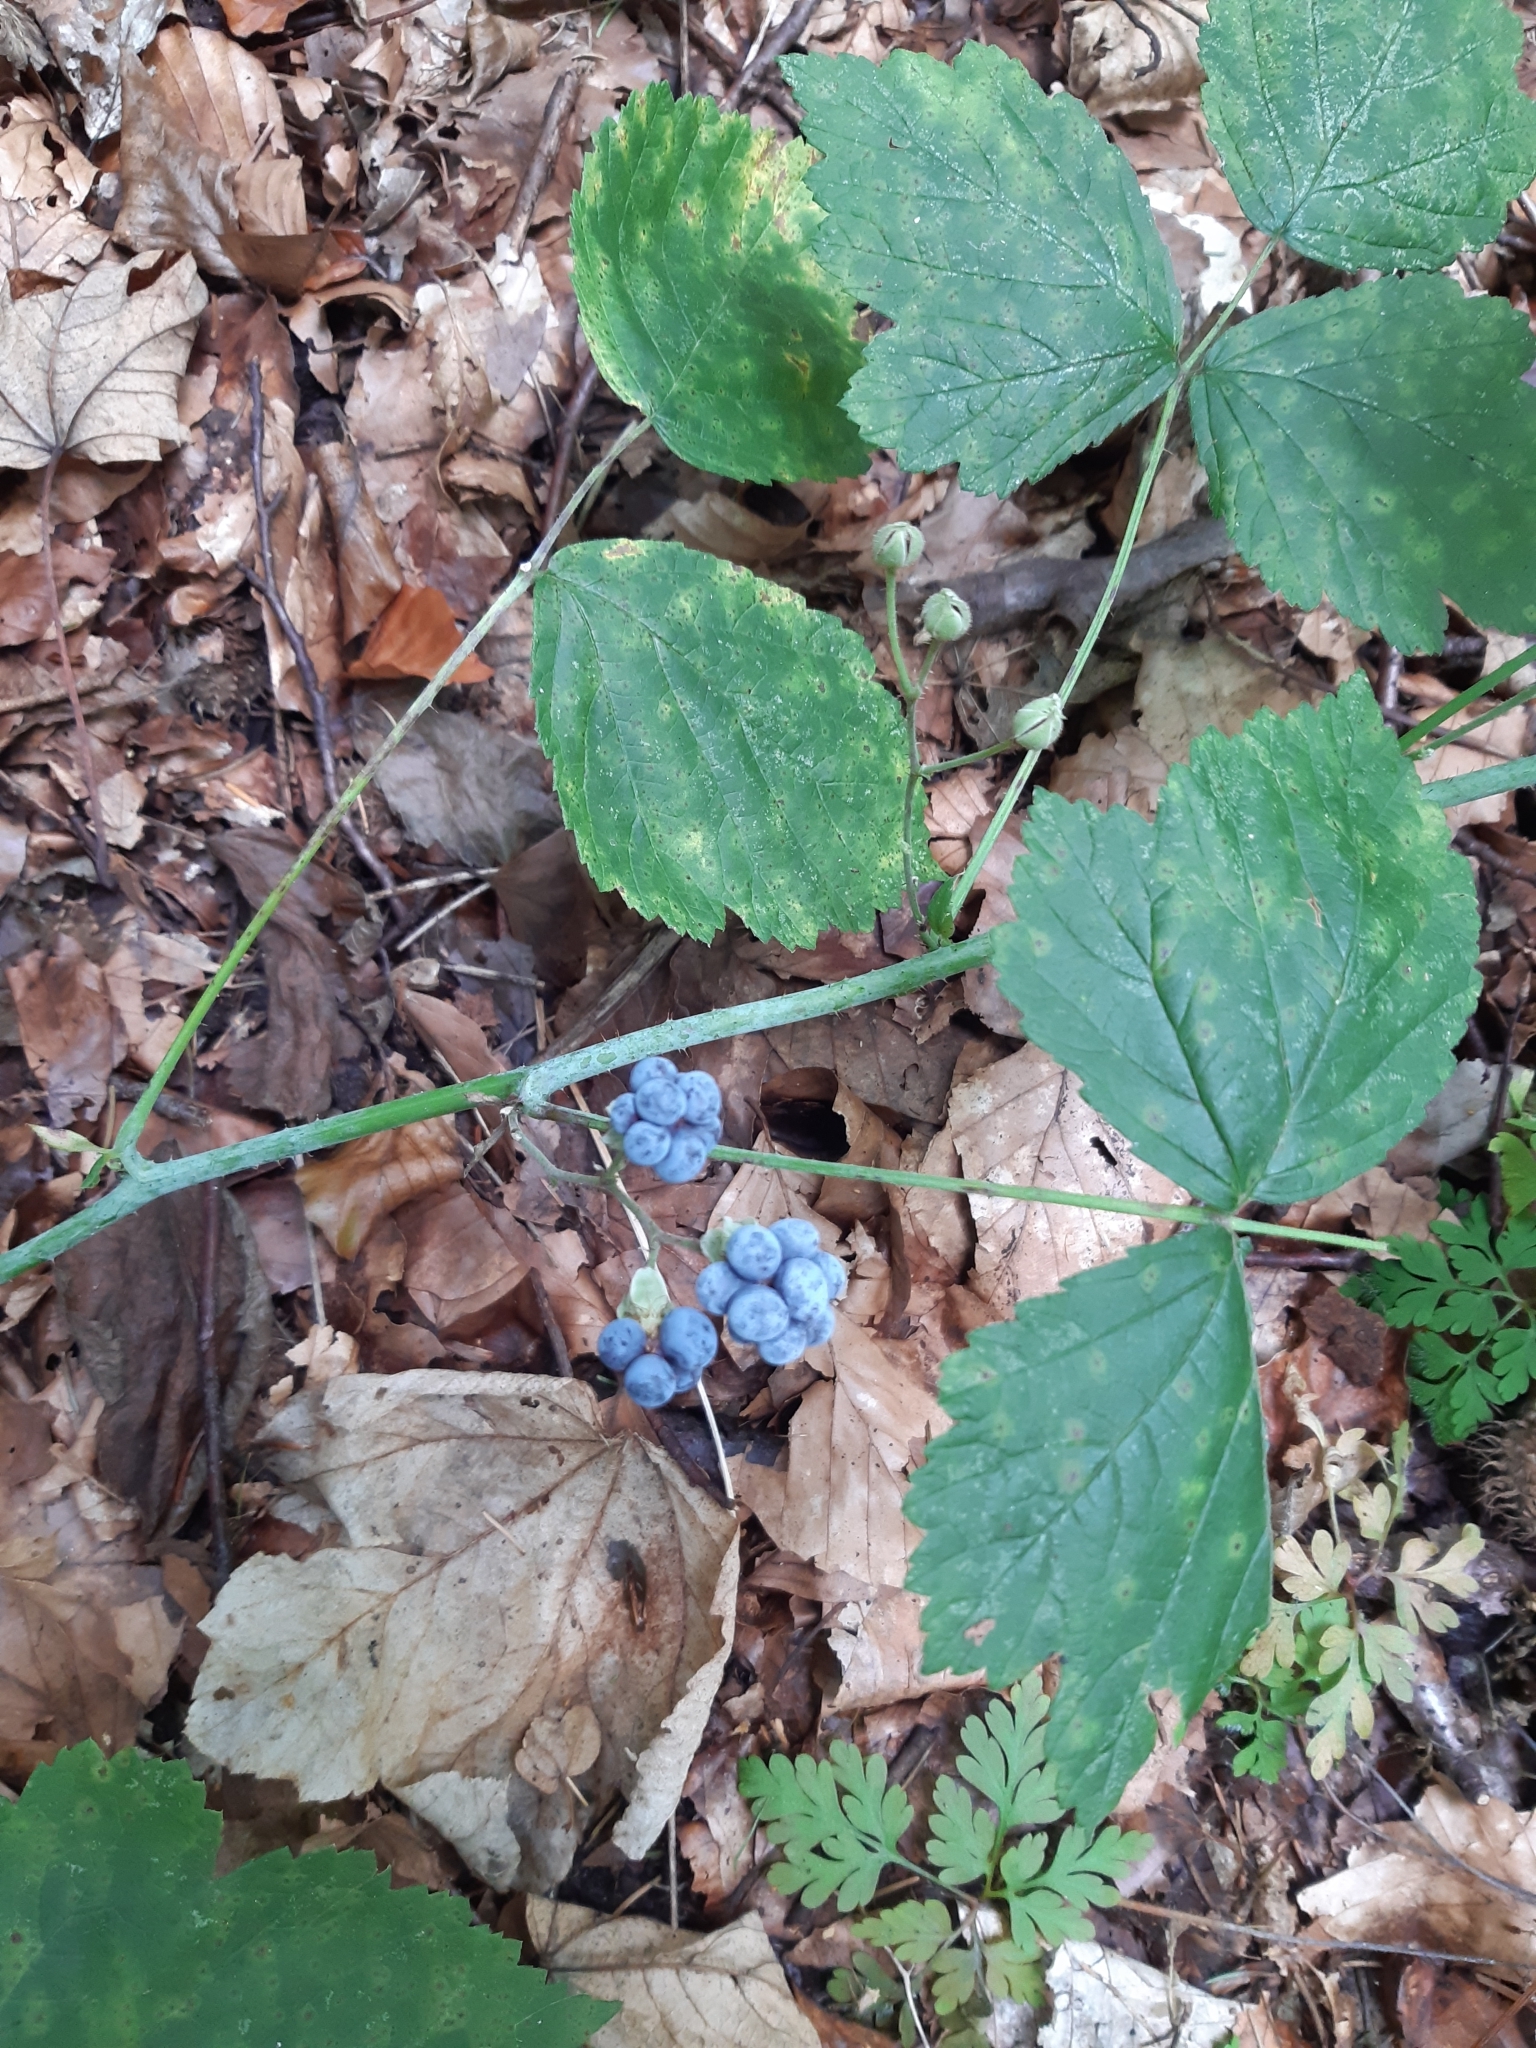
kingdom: Plantae
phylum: Tracheophyta
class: Magnoliopsida
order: Rosales
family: Rosaceae
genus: Rubus
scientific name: Rubus caesius
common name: Dewberry
